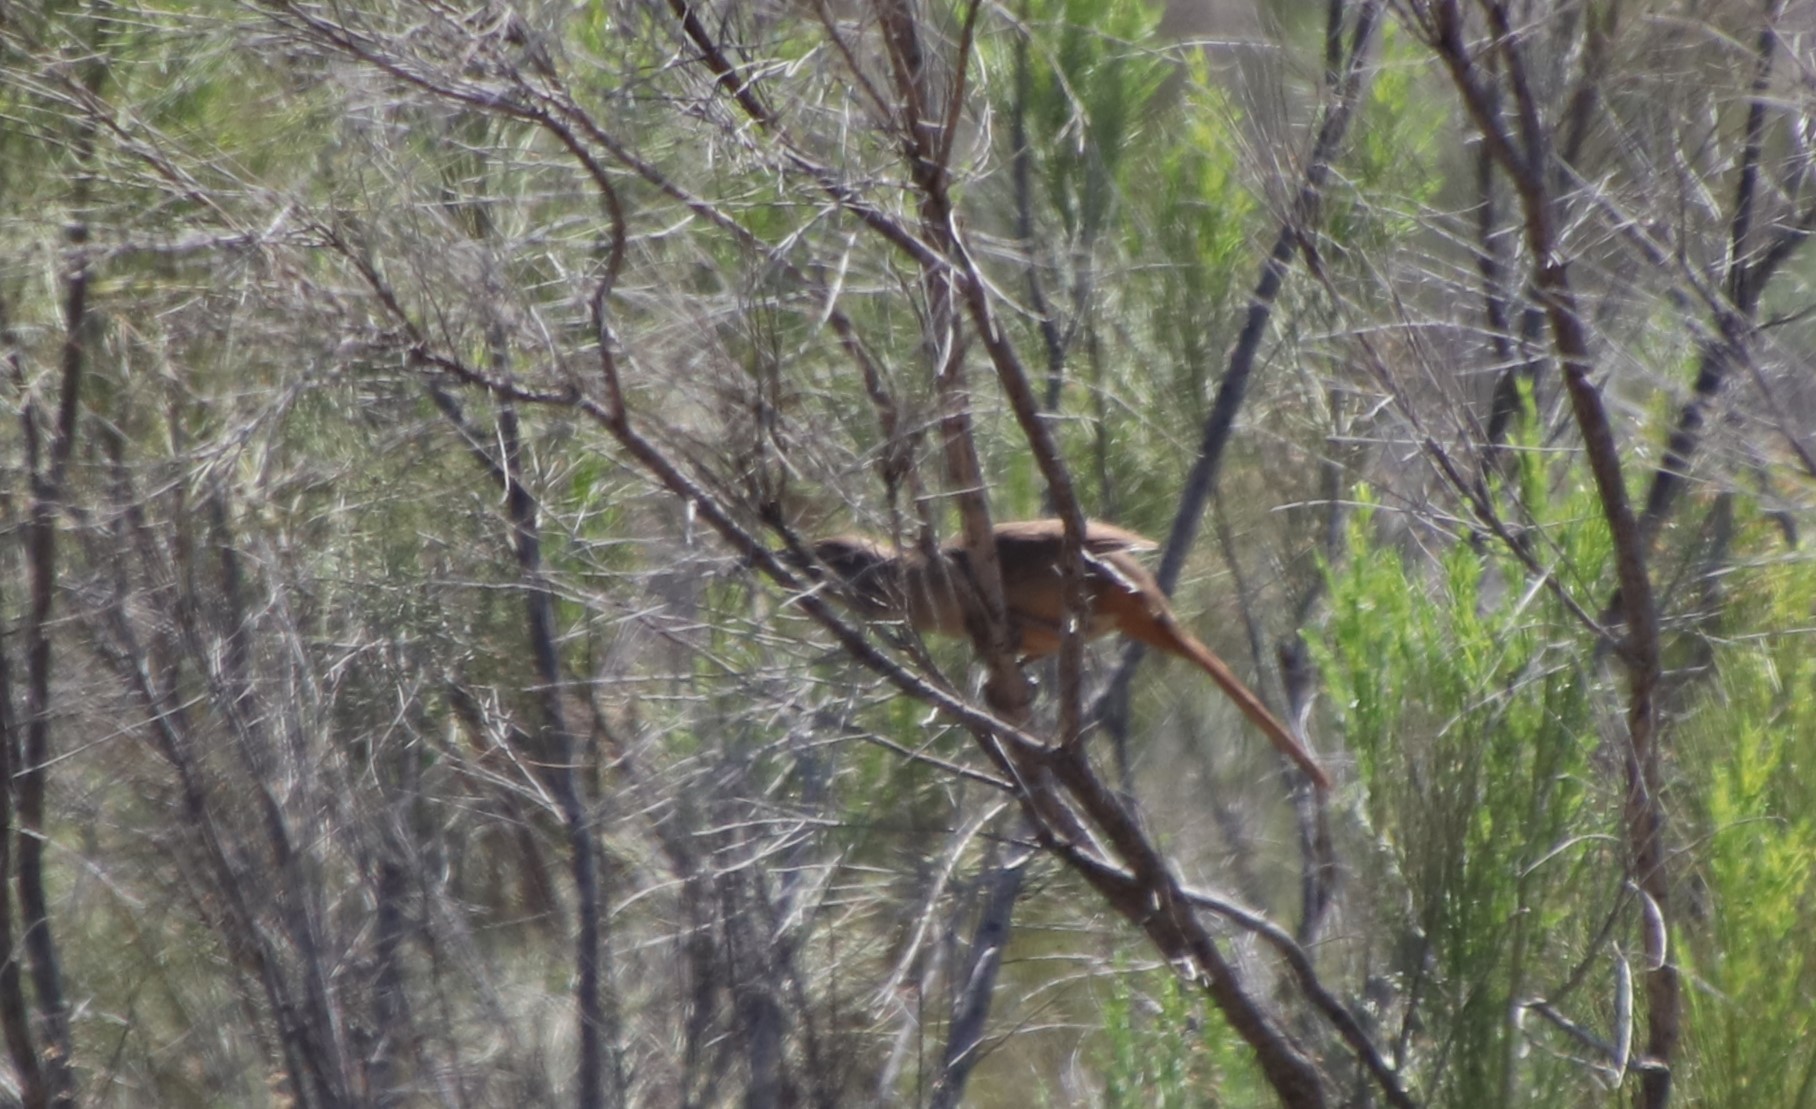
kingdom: Animalia
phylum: Chordata
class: Aves
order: Passeriformes
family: Mimidae
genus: Toxostoma
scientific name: Toxostoma redivivum
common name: California thrasher
